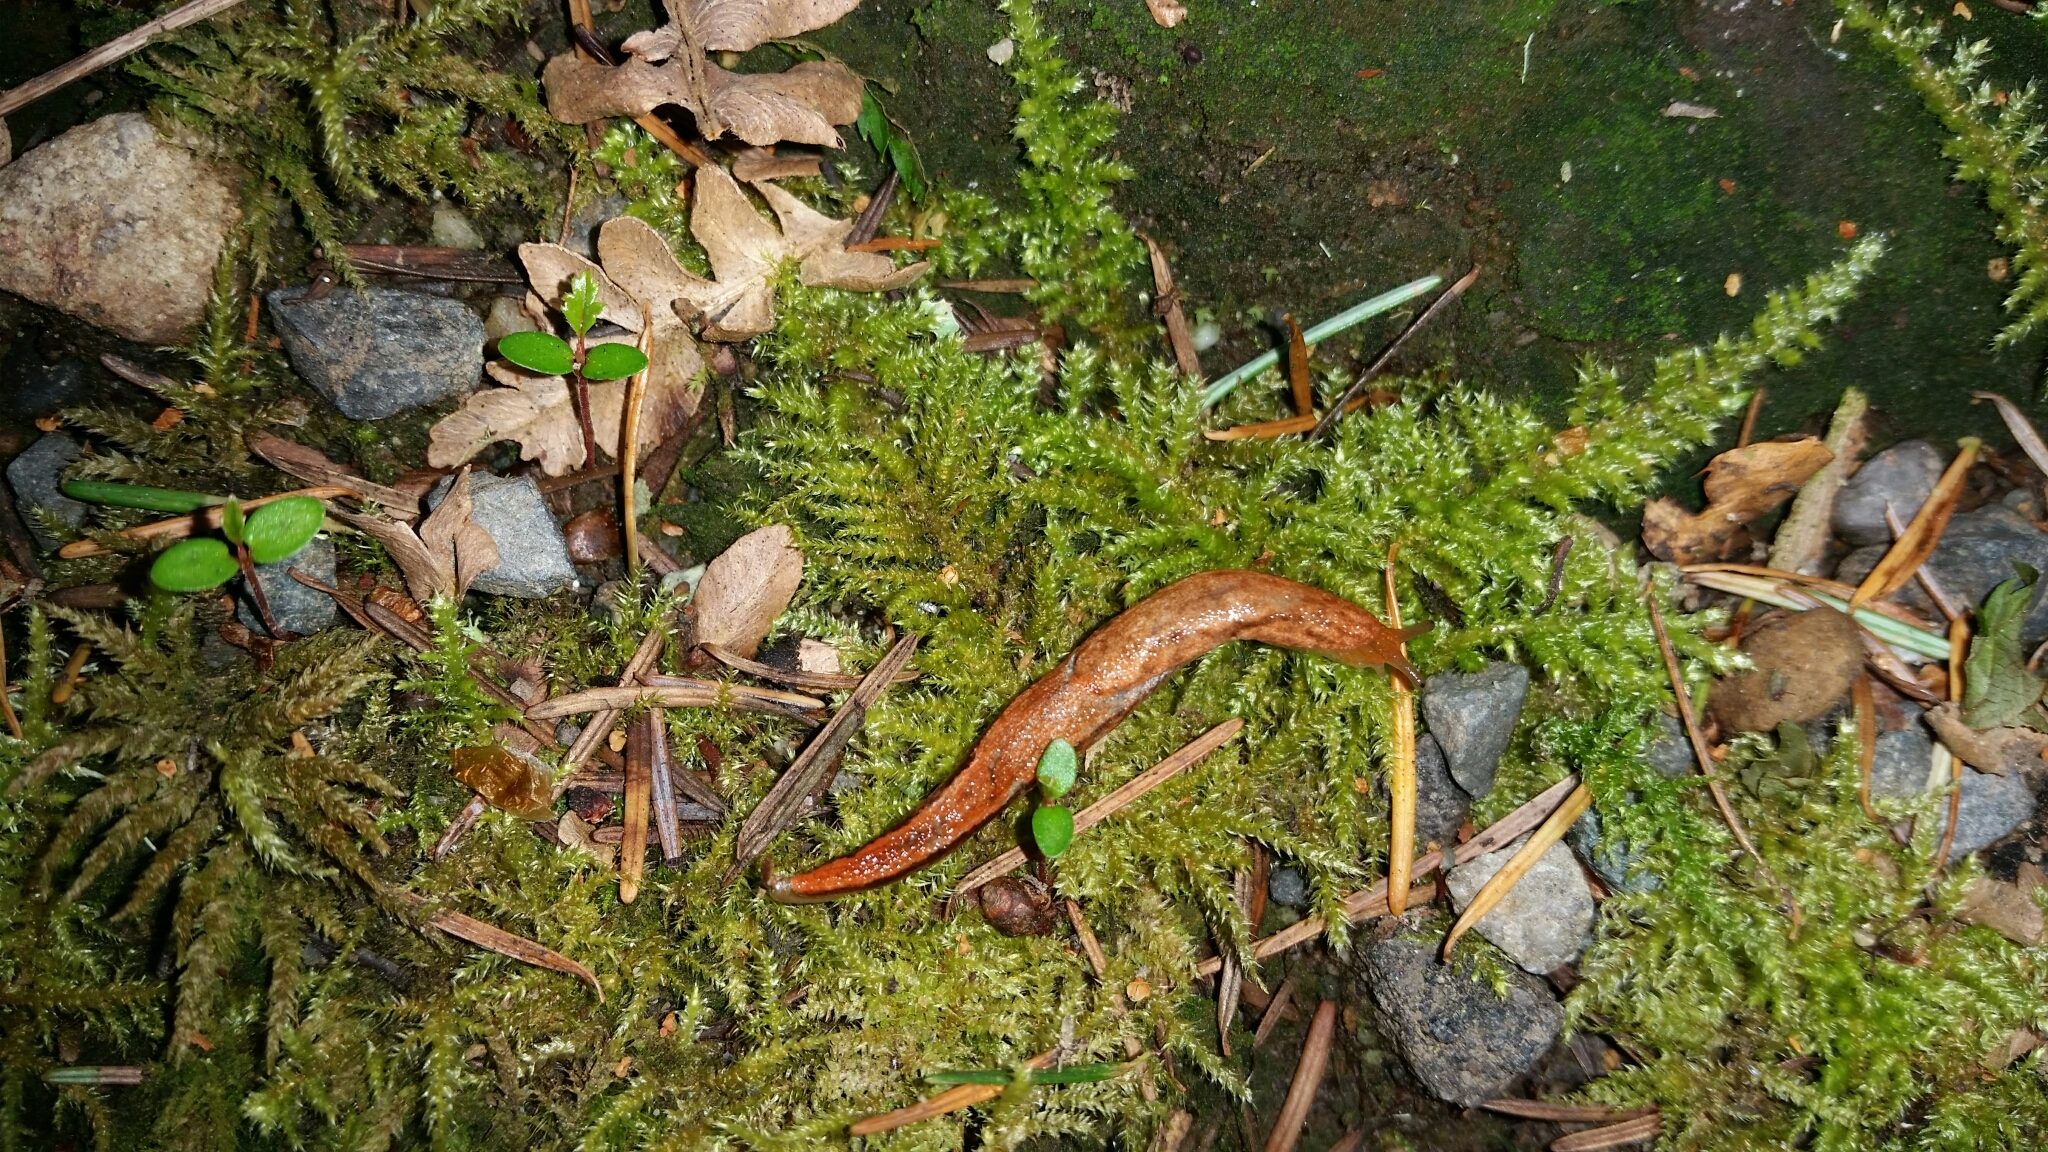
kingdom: Animalia
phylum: Mollusca
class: Gastropoda
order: Stylommatophora
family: Ariolimacidae
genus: Prophysaon
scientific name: Prophysaon vanattae
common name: Scarletback taildropper
